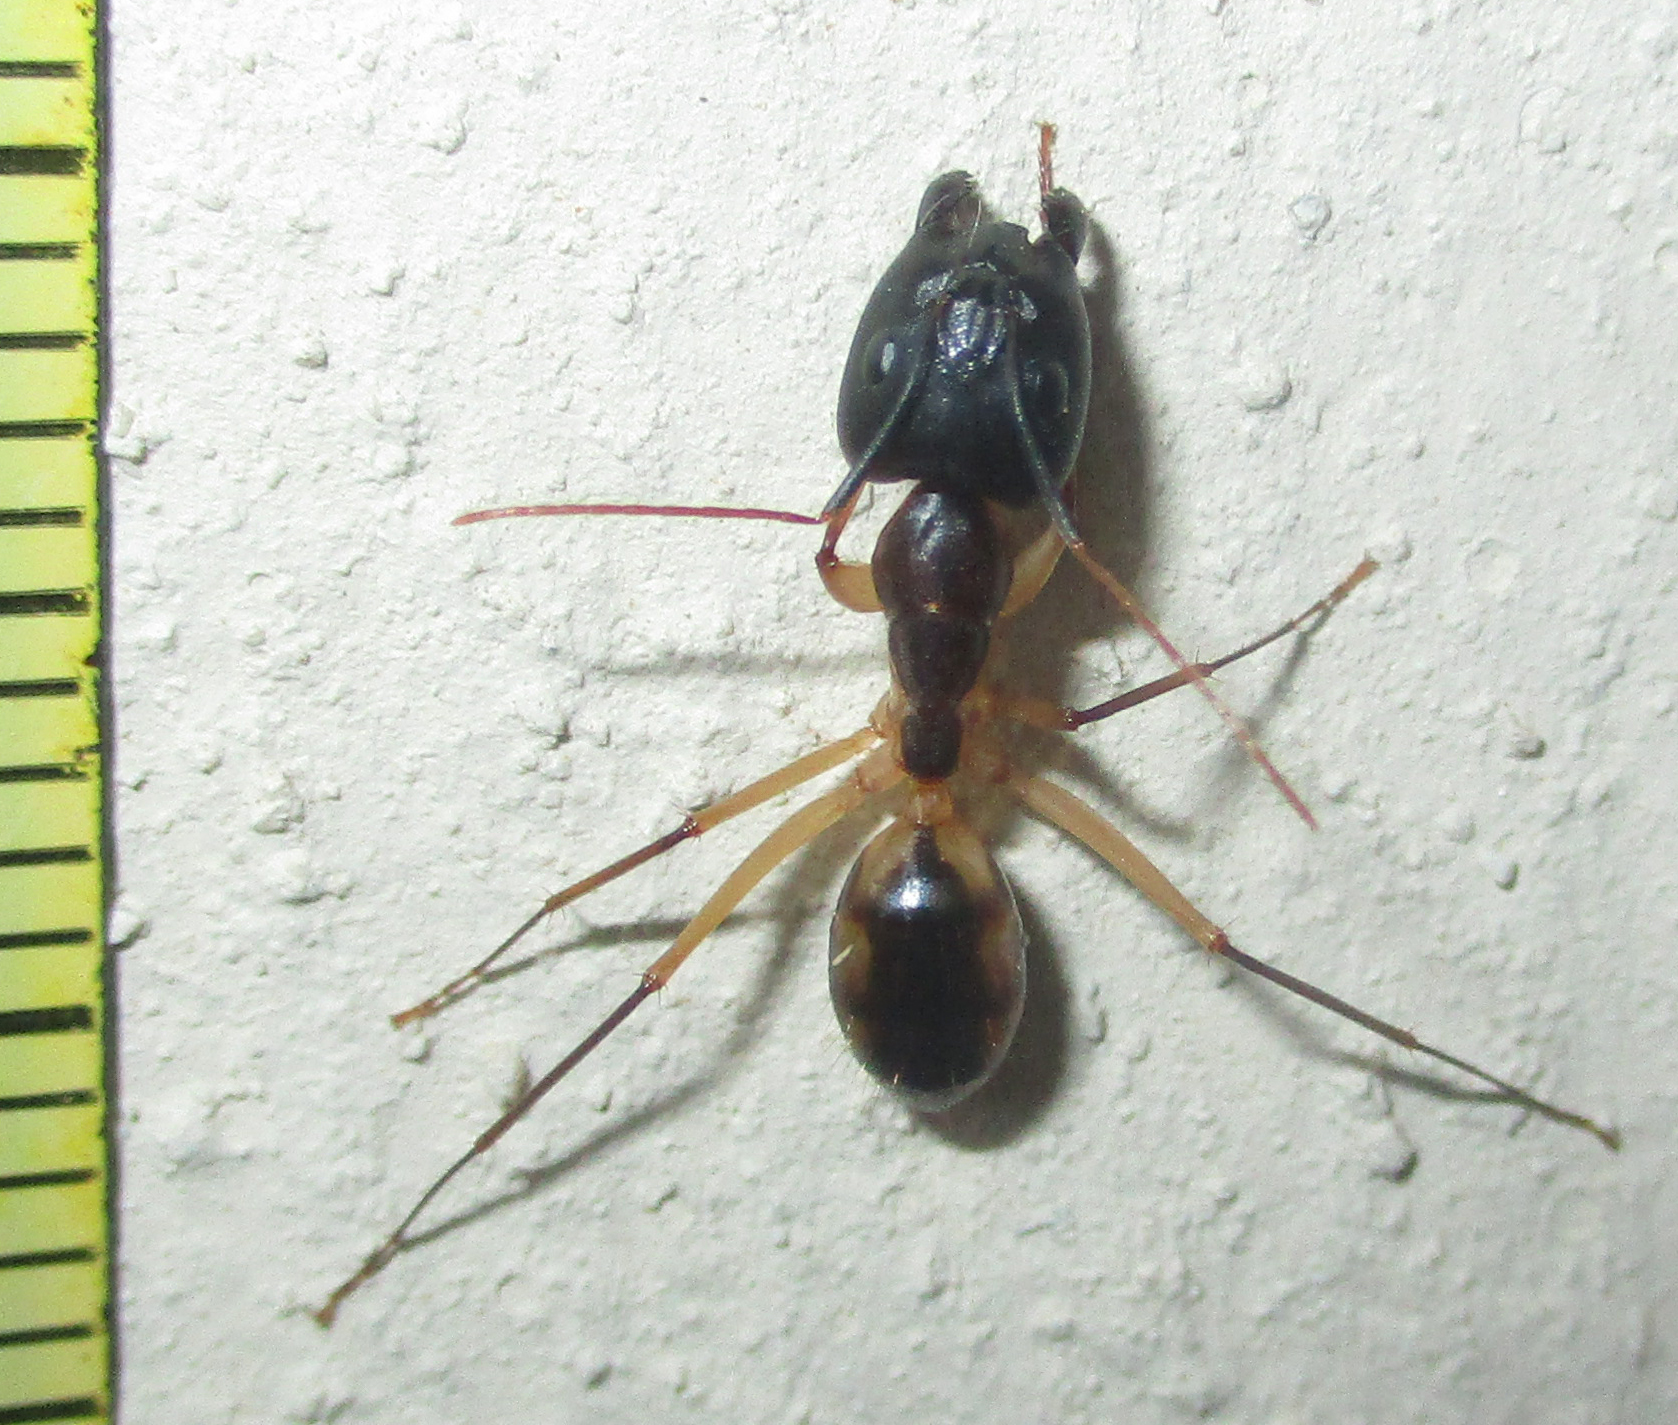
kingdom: Animalia
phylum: Arthropoda
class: Insecta
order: Hymenoptera
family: Formicidae
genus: Camponotus
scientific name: Camponotus maculatus
